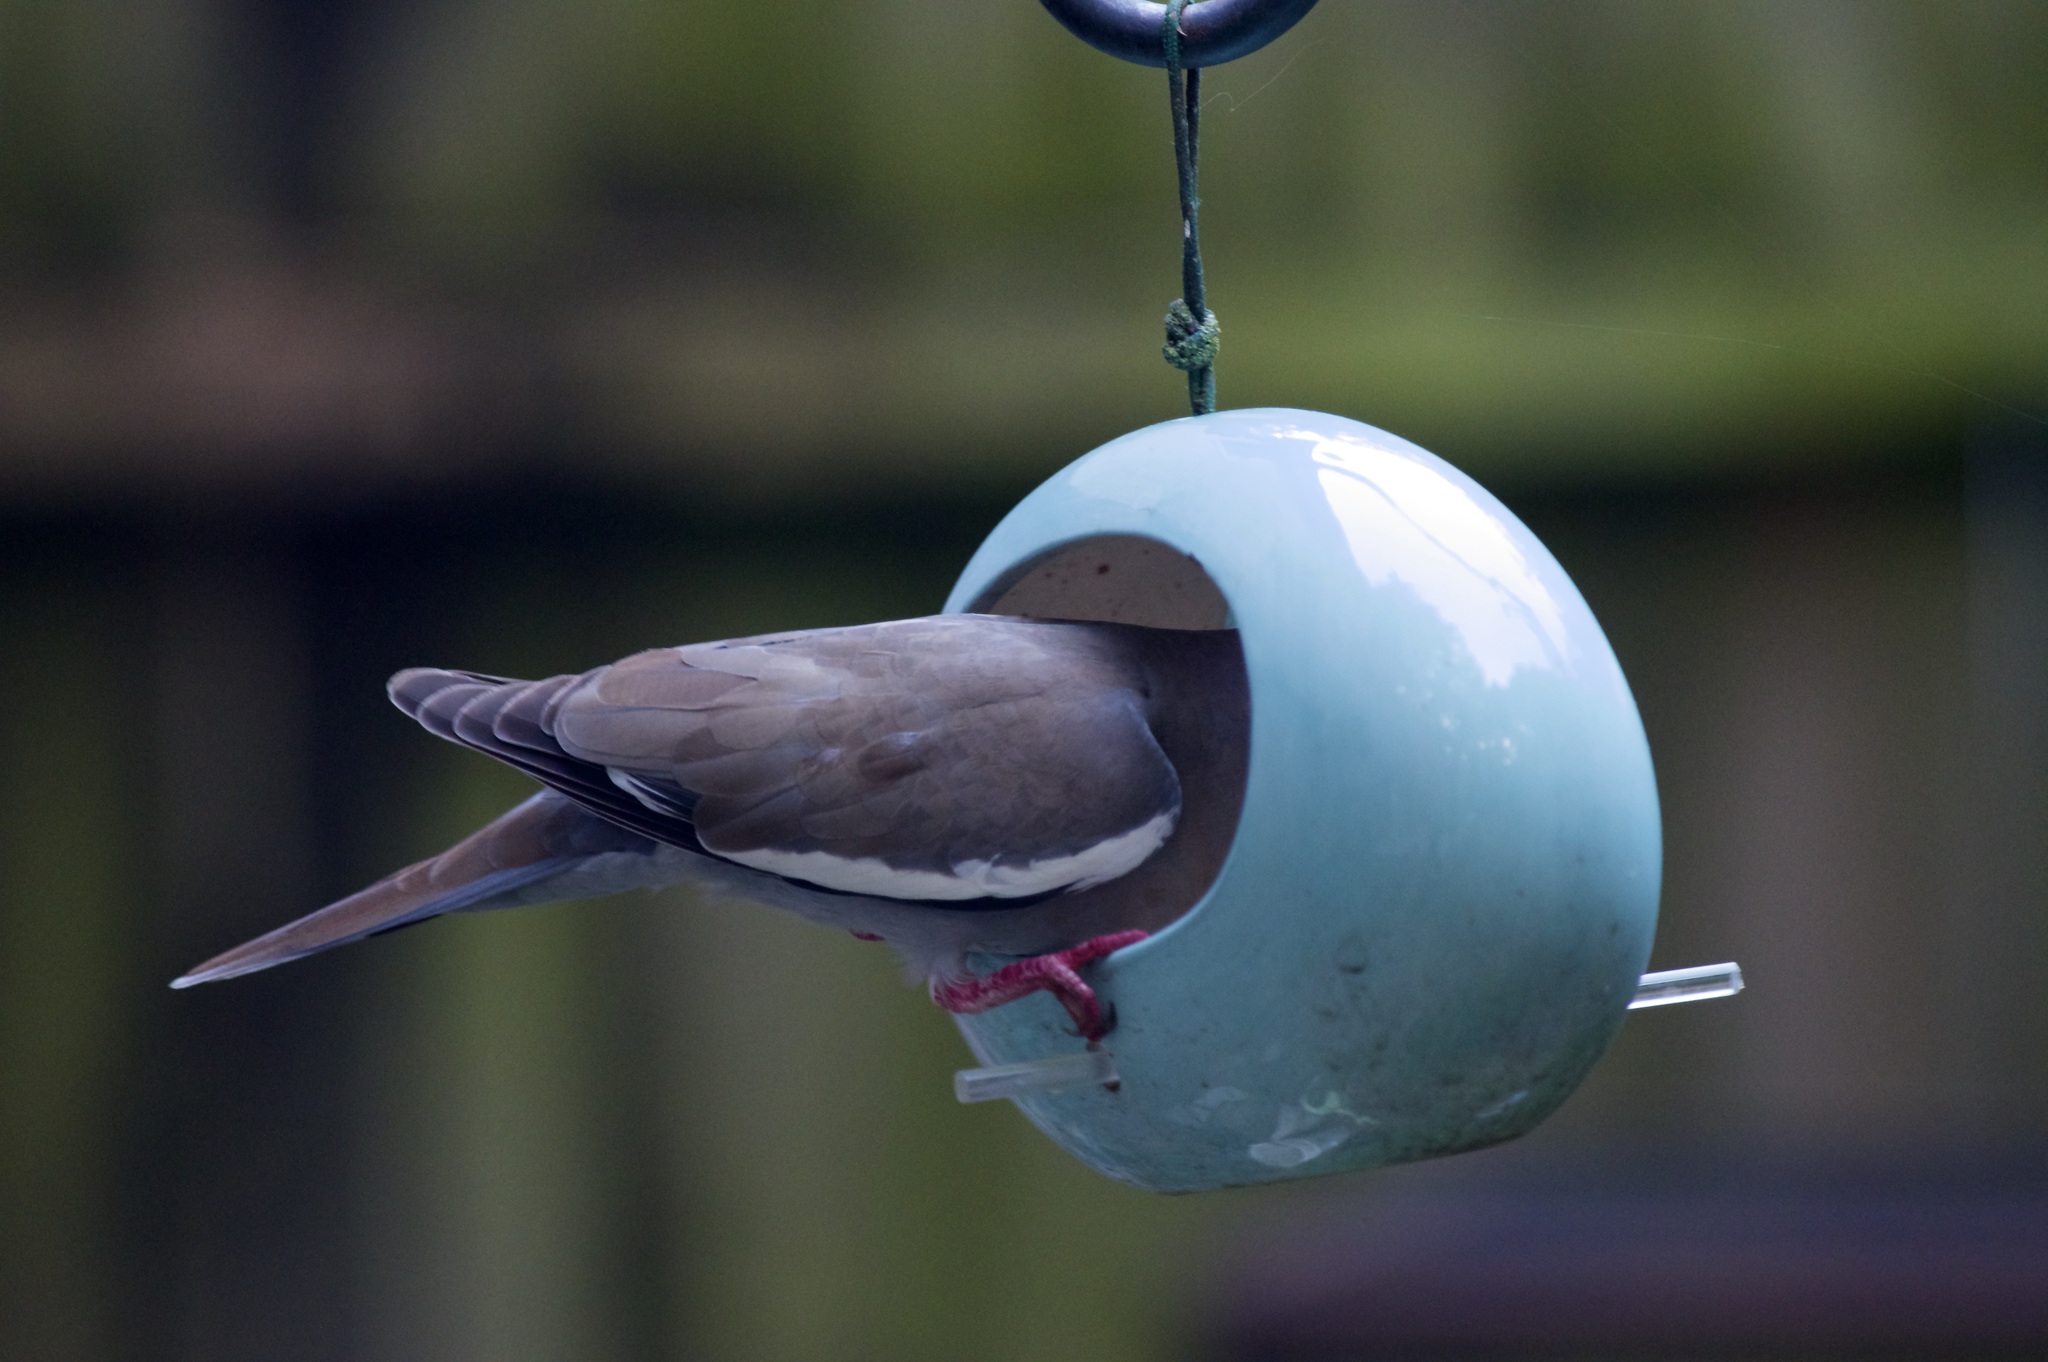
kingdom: Animalia
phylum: Chordata
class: Aves
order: Columbiformes
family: Columbidae
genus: Zenaida
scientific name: Zenaida asiatica
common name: White-winged dove
